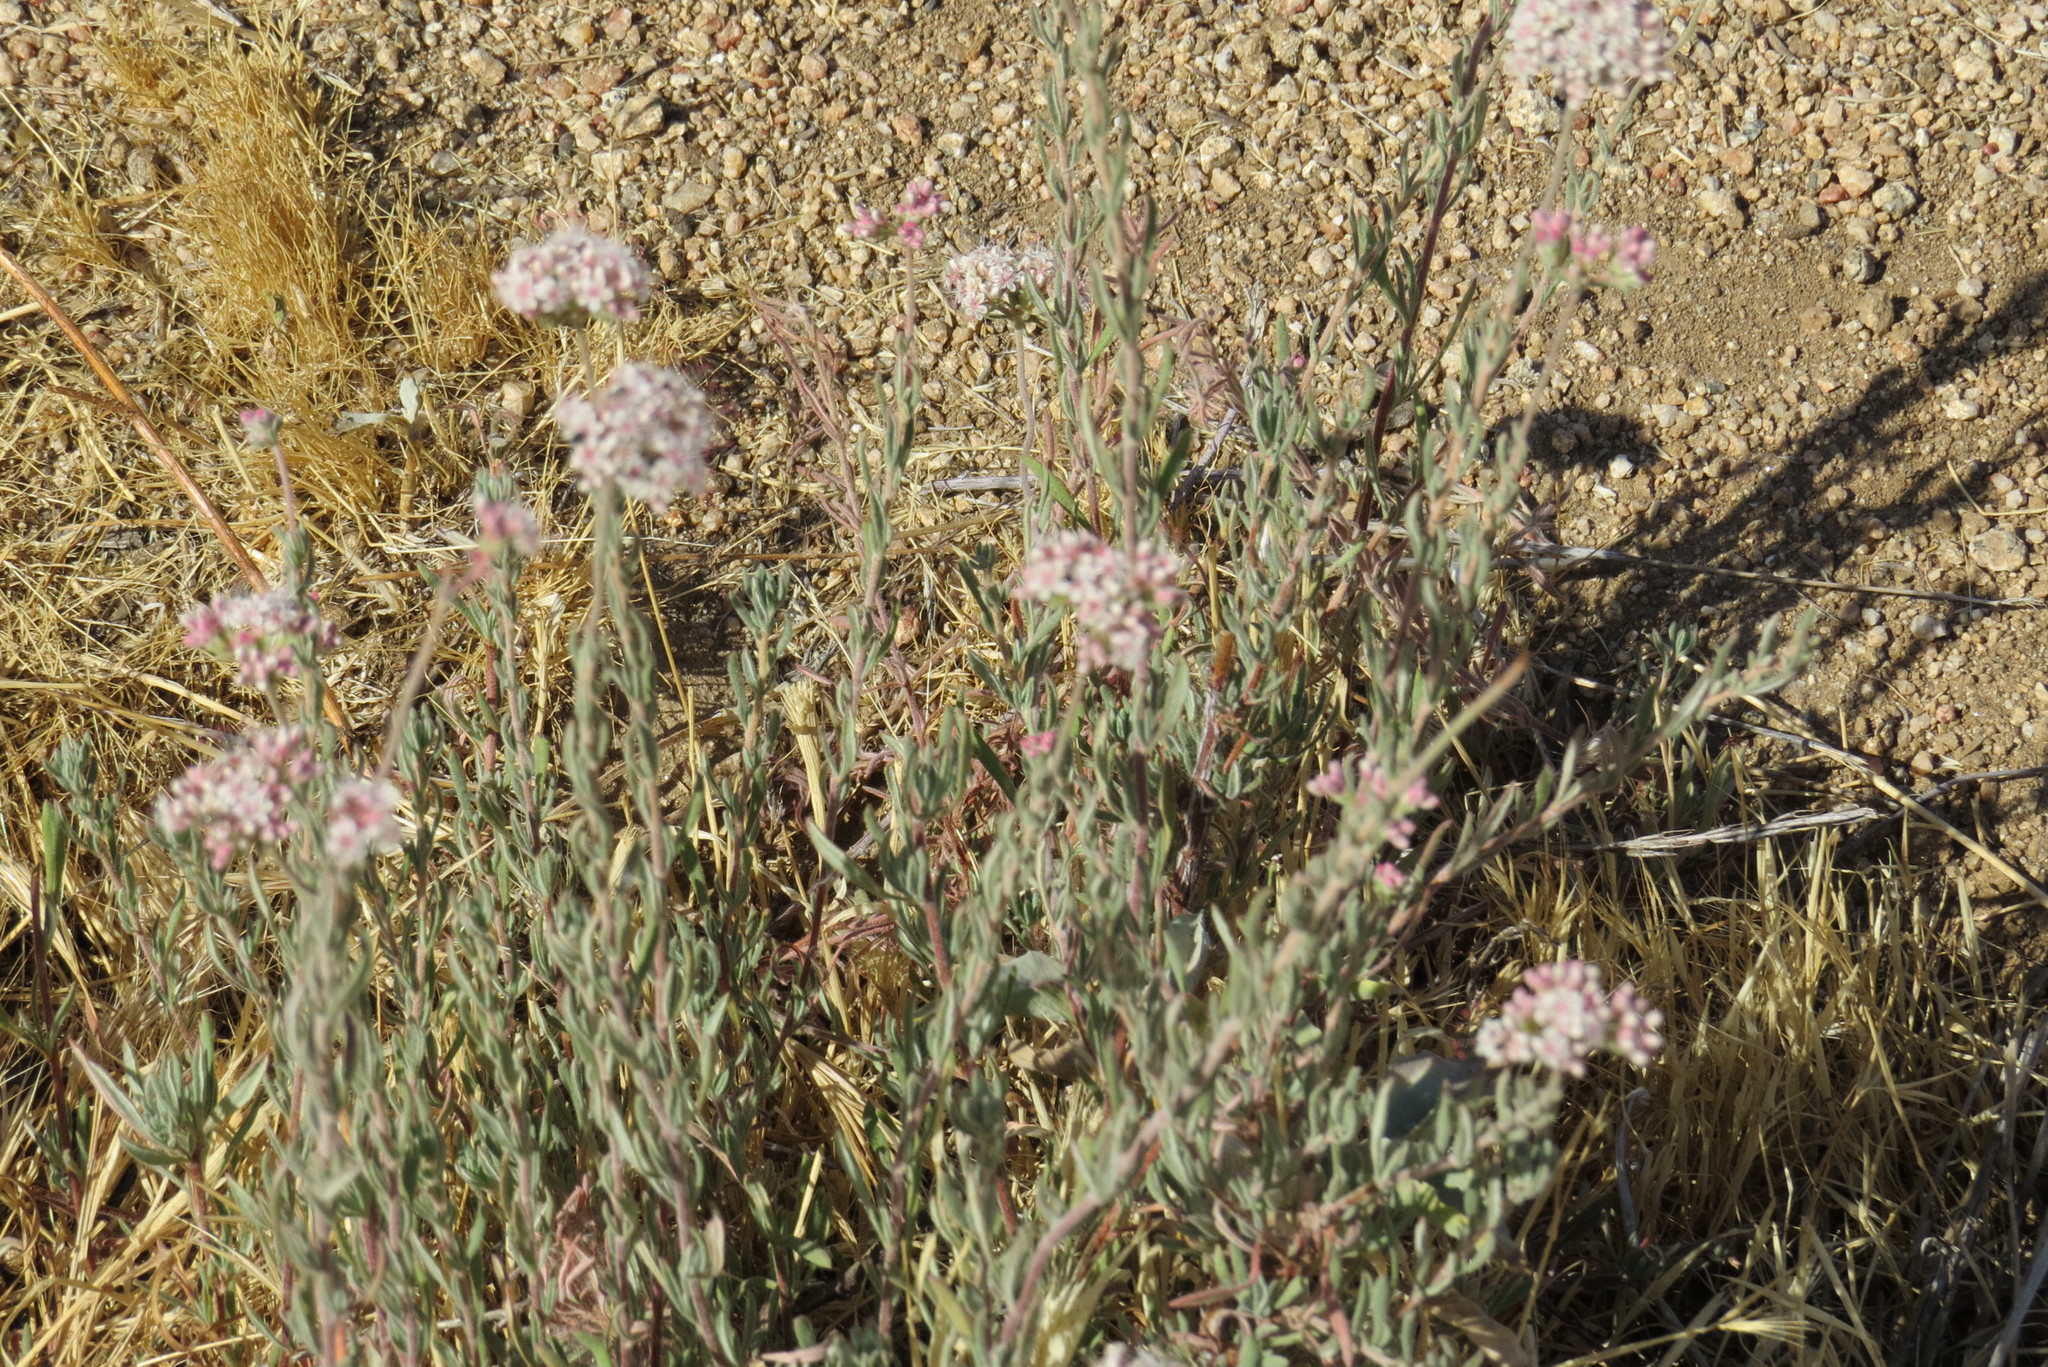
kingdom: Plantae
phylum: Tracheophyta
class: Magnoliopsida
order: Caryophyllales
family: Polygonaceae
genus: Eriogonum
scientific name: Eriogonum fasciculatum
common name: California wild buckwheat
